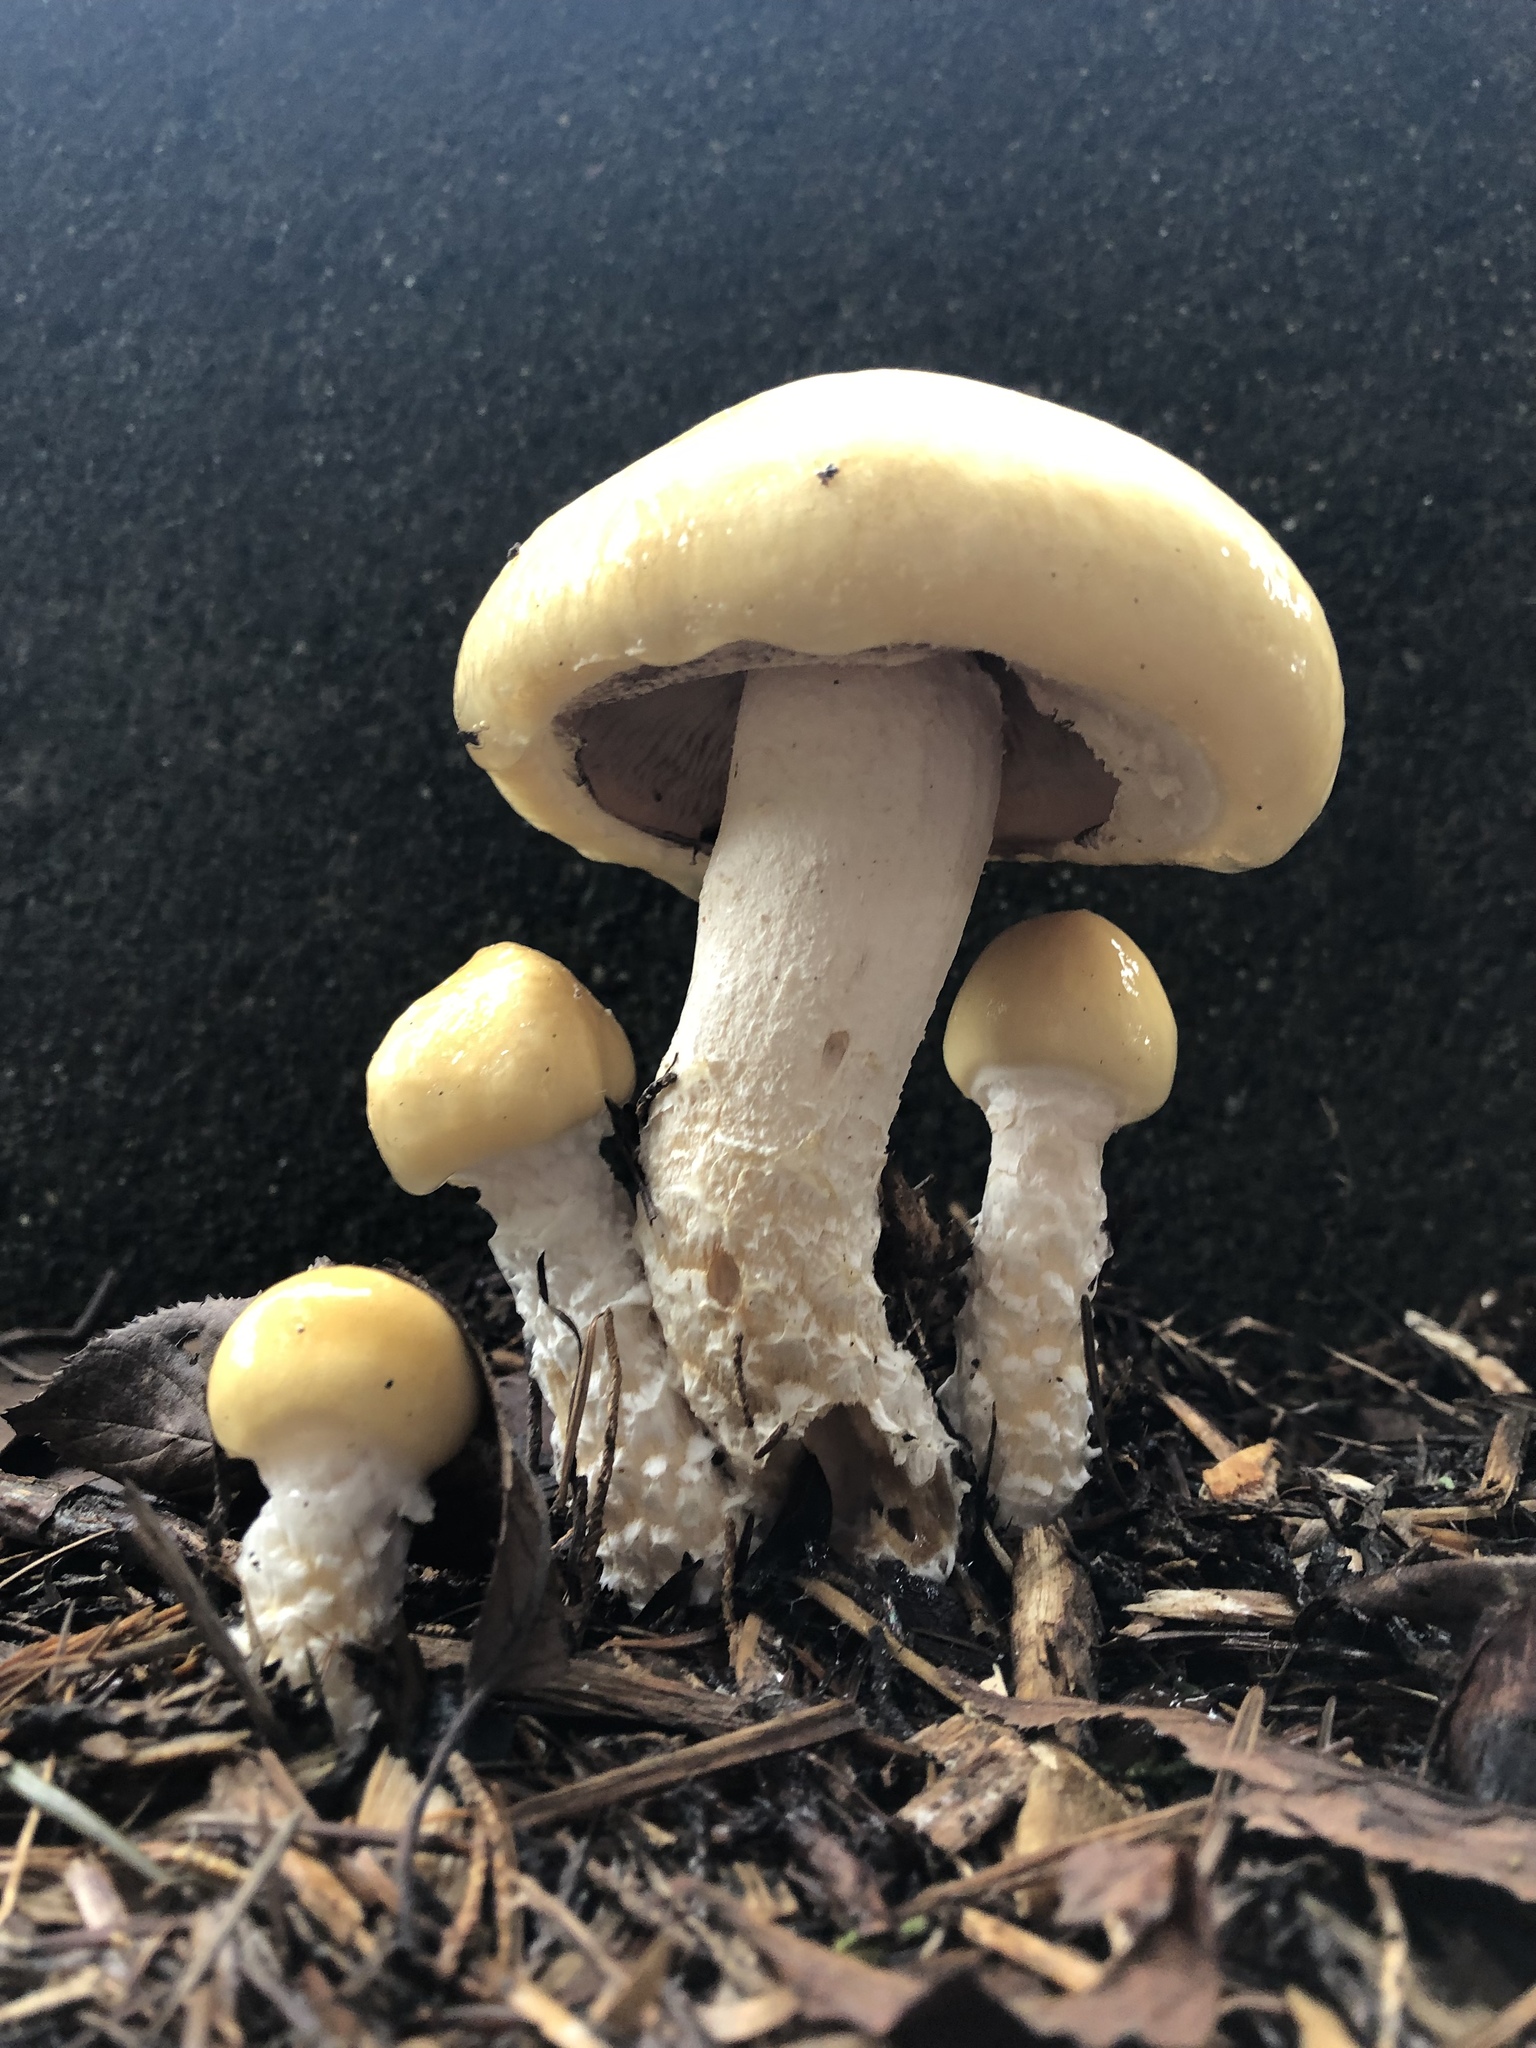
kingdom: Fungi
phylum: Basidiomycota
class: Agaricomycetes
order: Agaricales
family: Strophariaceae
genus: Stropharia
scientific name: Stropharia ambigua
